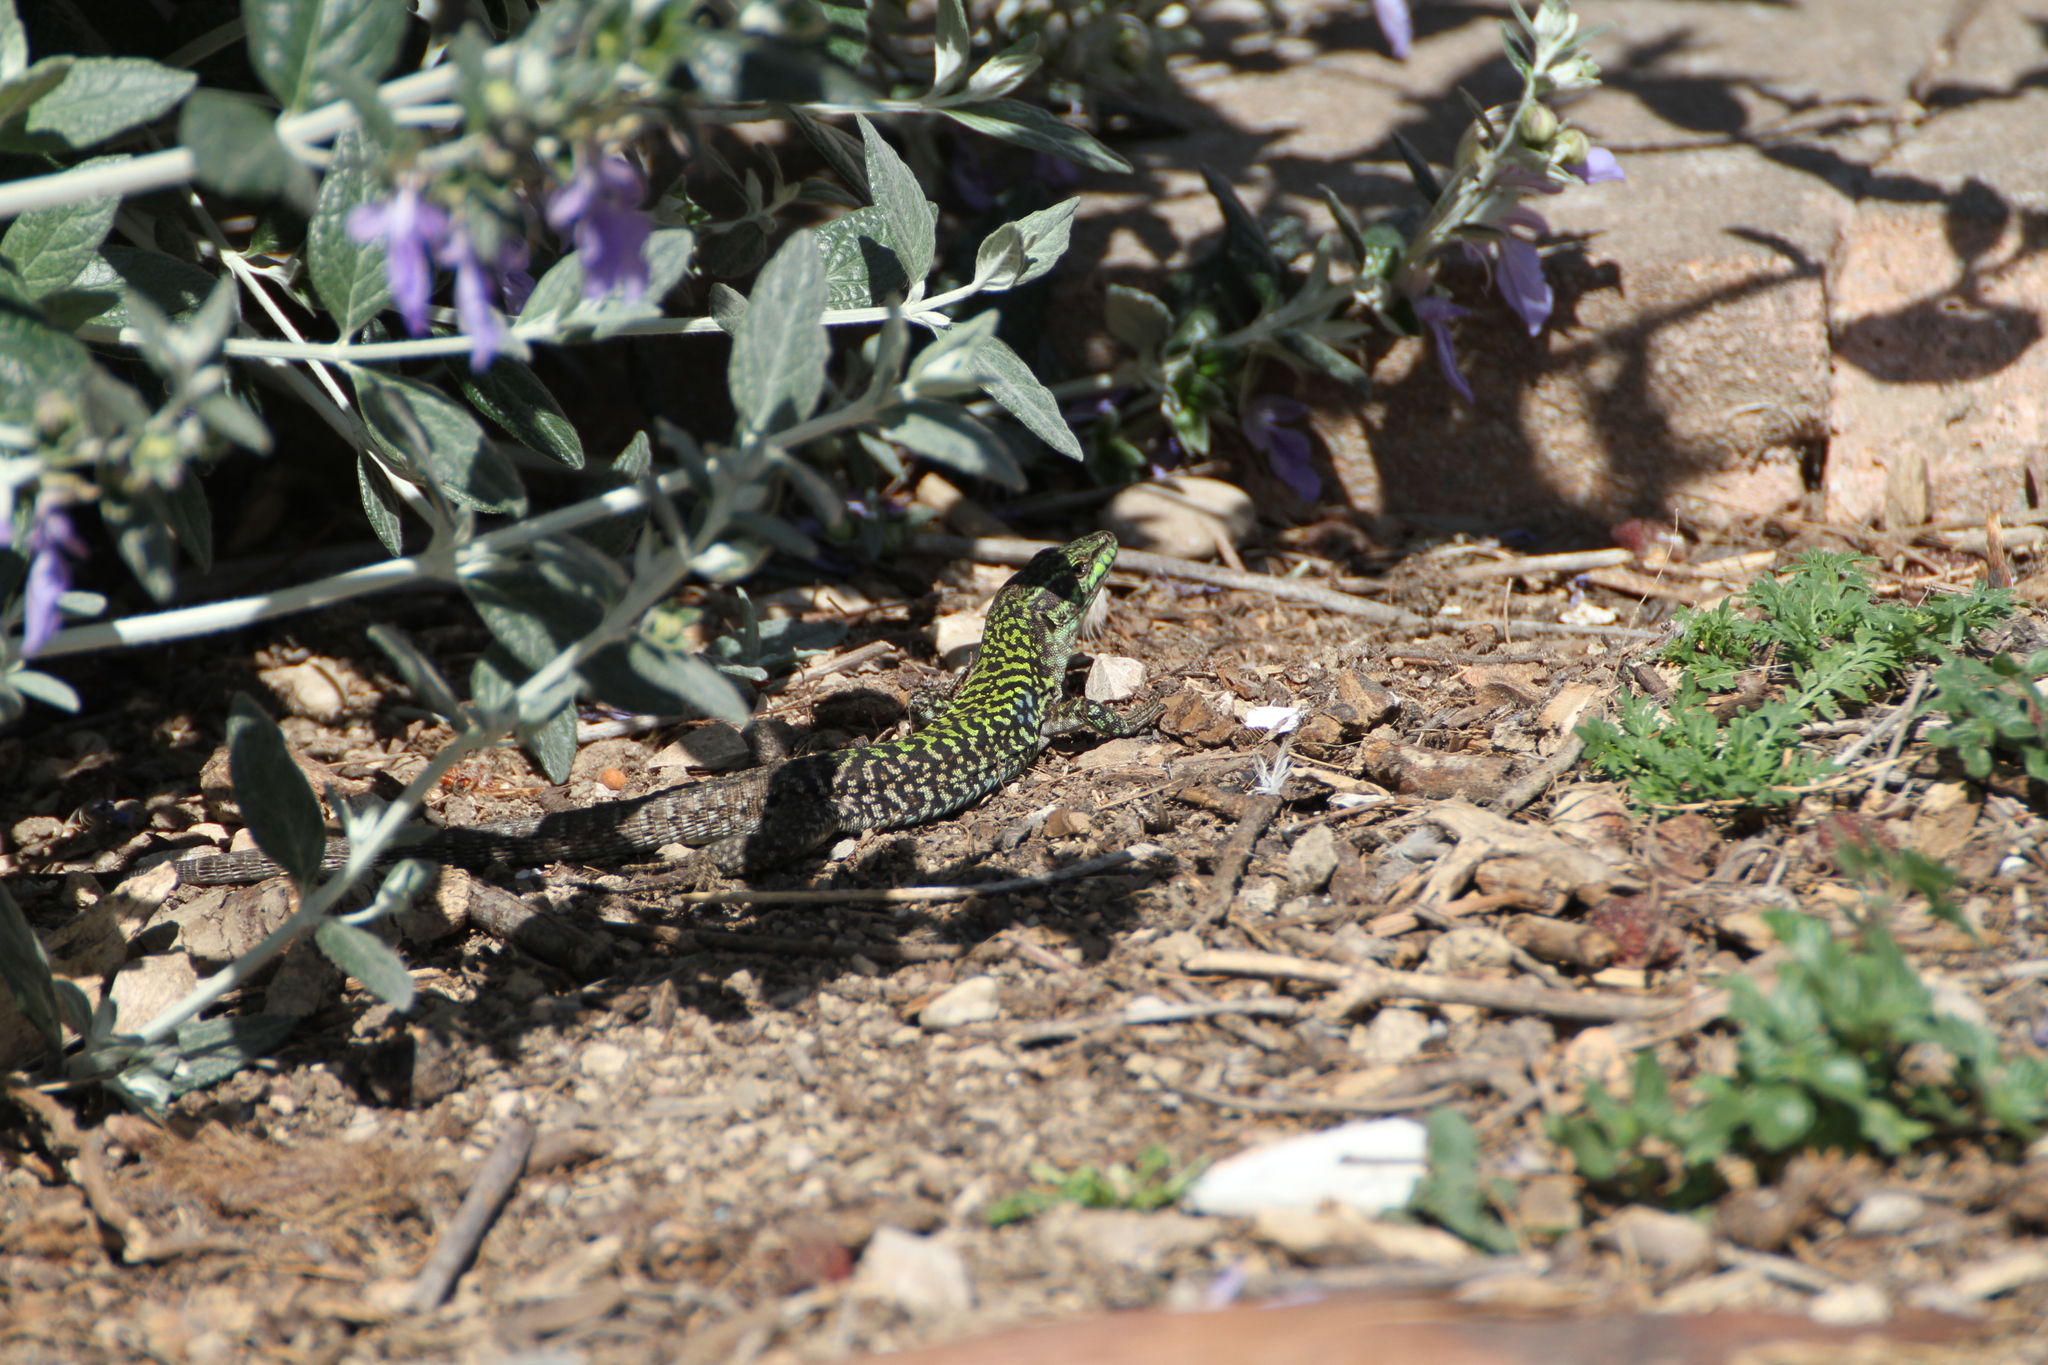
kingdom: Animalia
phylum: Chordata
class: Squamata
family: Lacertidae
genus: Podarcis
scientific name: Podarcis siculus
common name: Italian wall lizard
